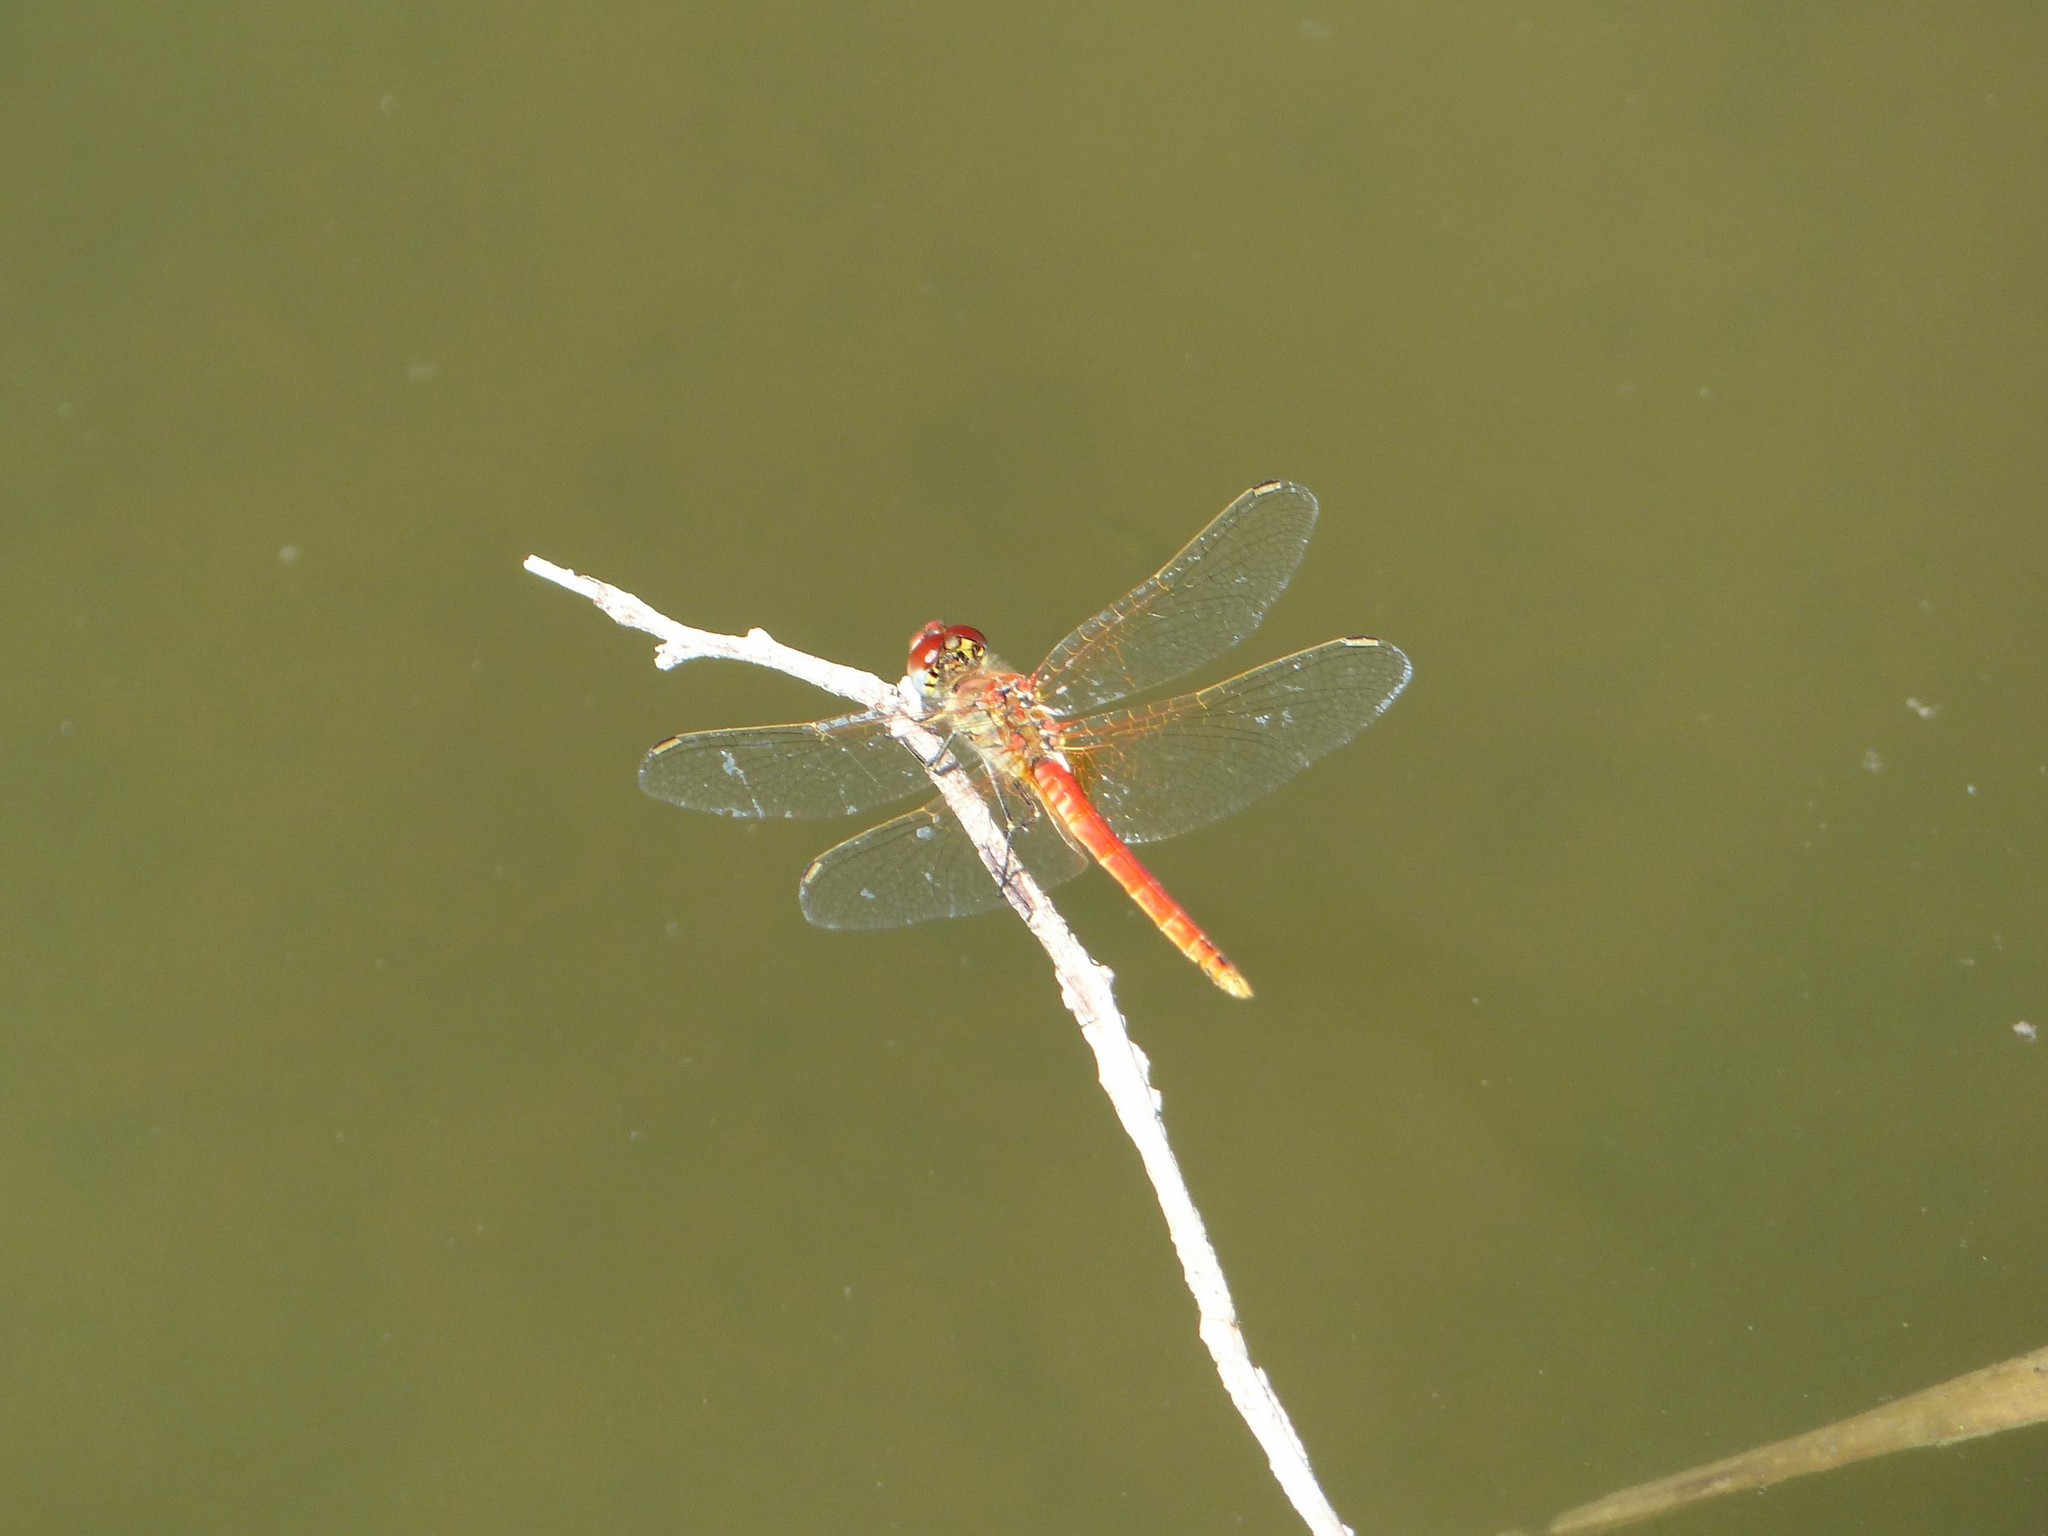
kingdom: Animalia
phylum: Arthropoda
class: Insecta
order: Odonata
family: Libellulidae
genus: Sympetrum
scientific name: Sympetrum fonscolombii
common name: Red-veined darter
